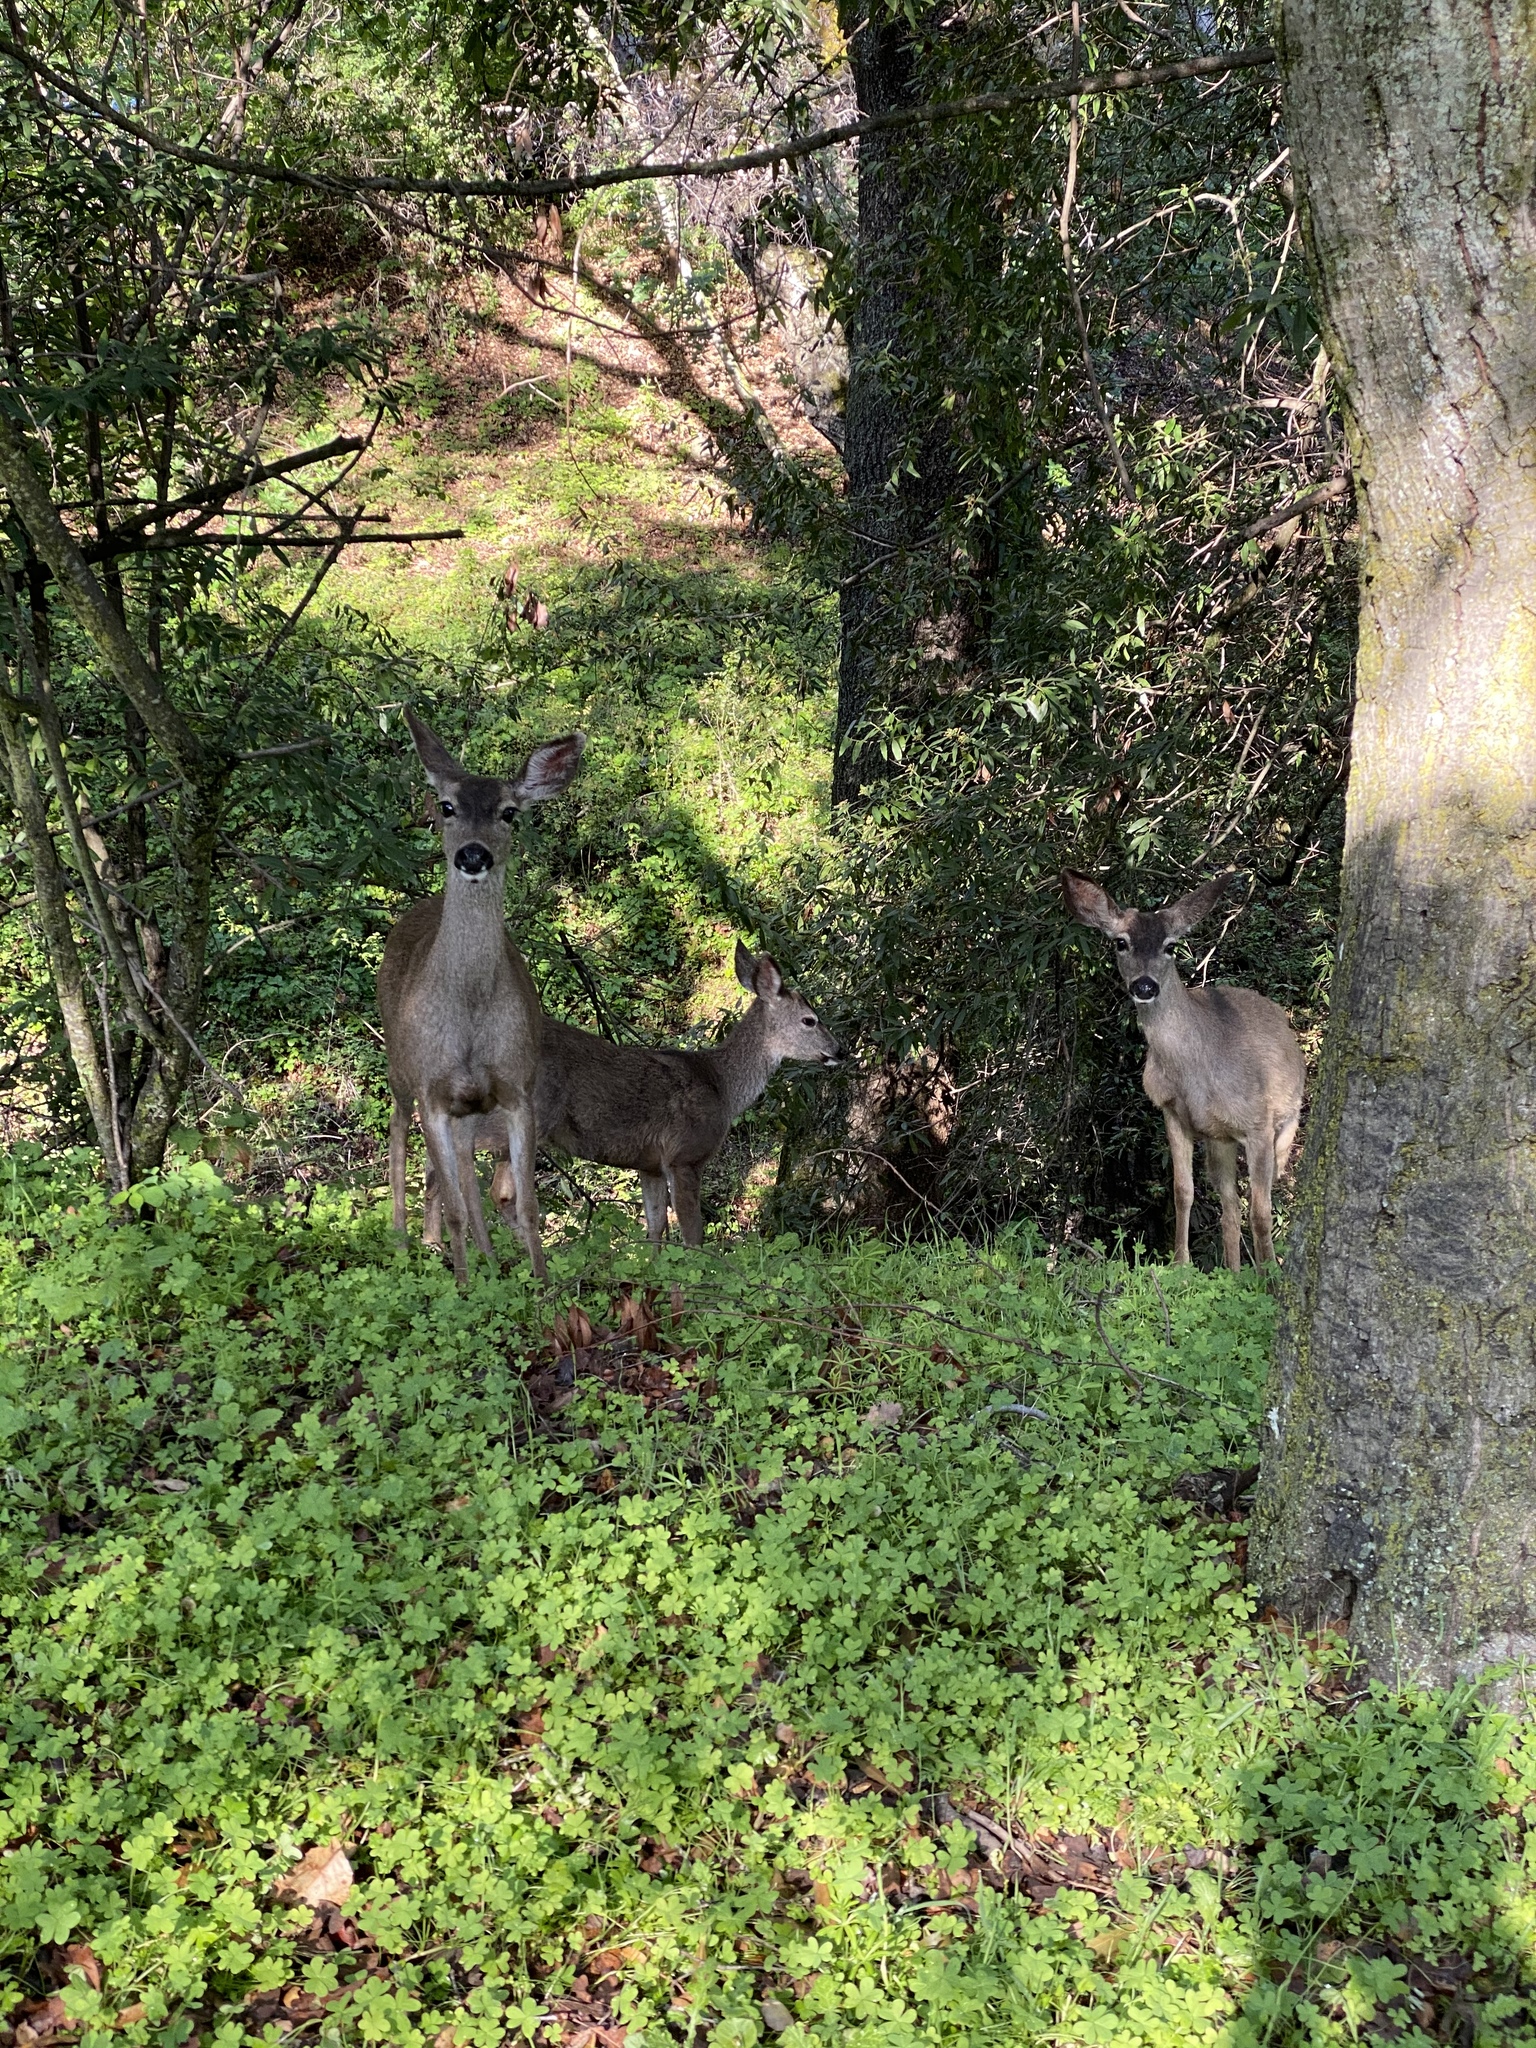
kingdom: Animalia
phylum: Chordata
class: Mammalia
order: Artiodactyla
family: Cervidae
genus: Odocoileus
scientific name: Odocoileus hemionus
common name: Mule deer
